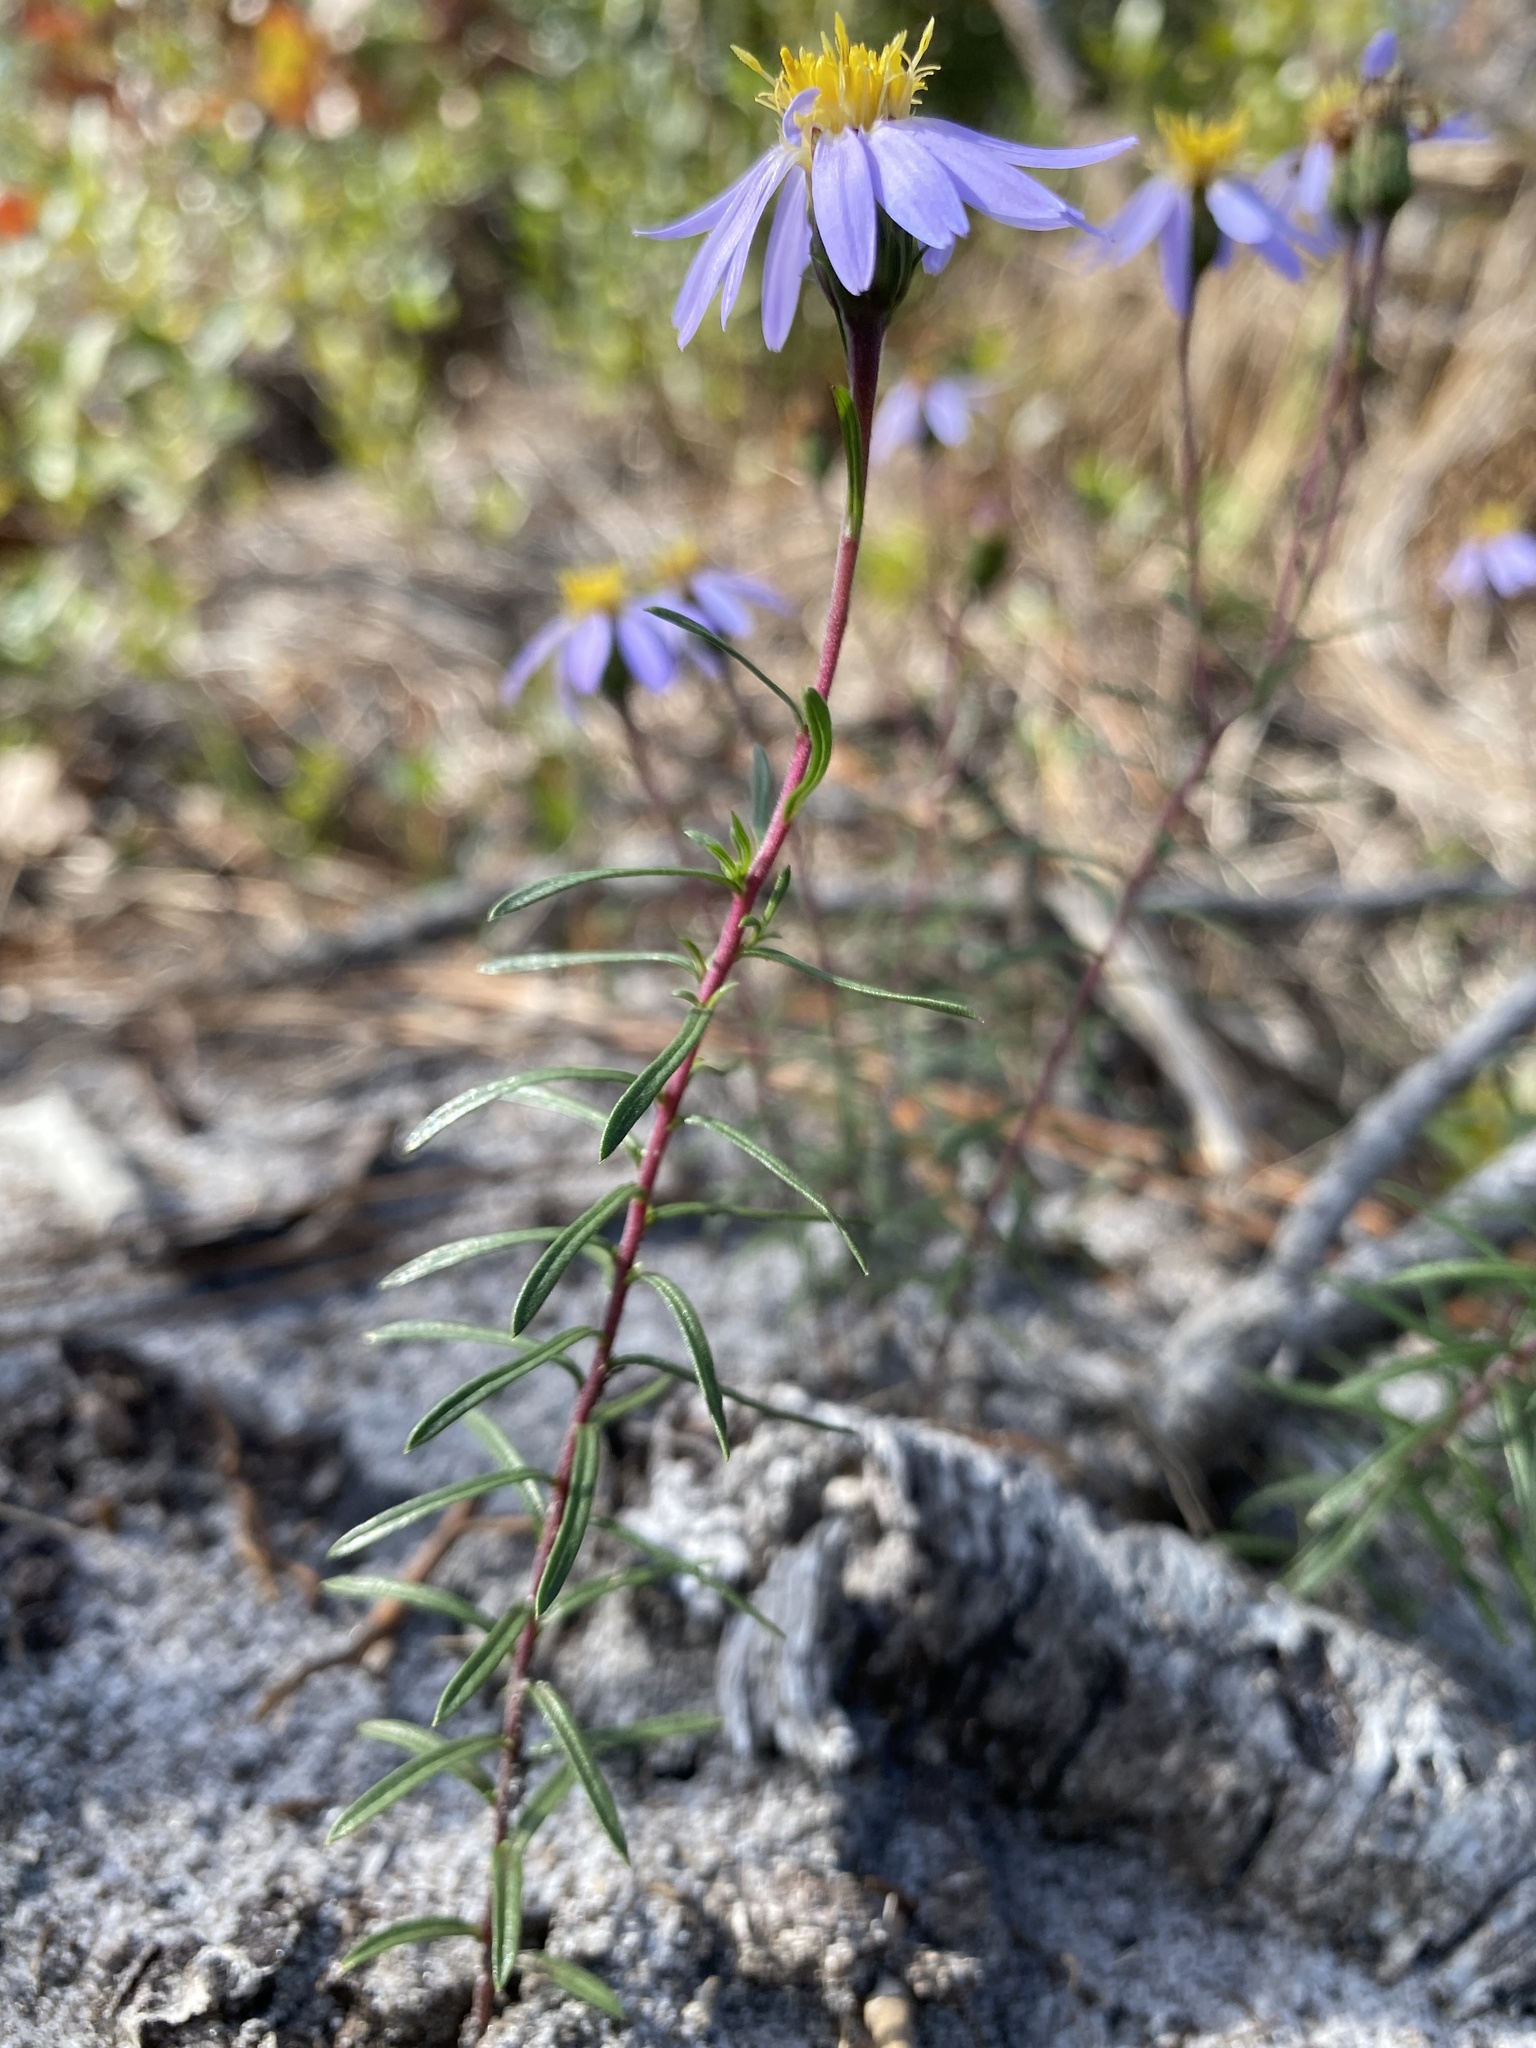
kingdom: Plantae
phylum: Tracheophyta
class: Magnoliopsida
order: Asterales
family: Asteraceae
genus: Ionactis
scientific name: Ionactis repens
